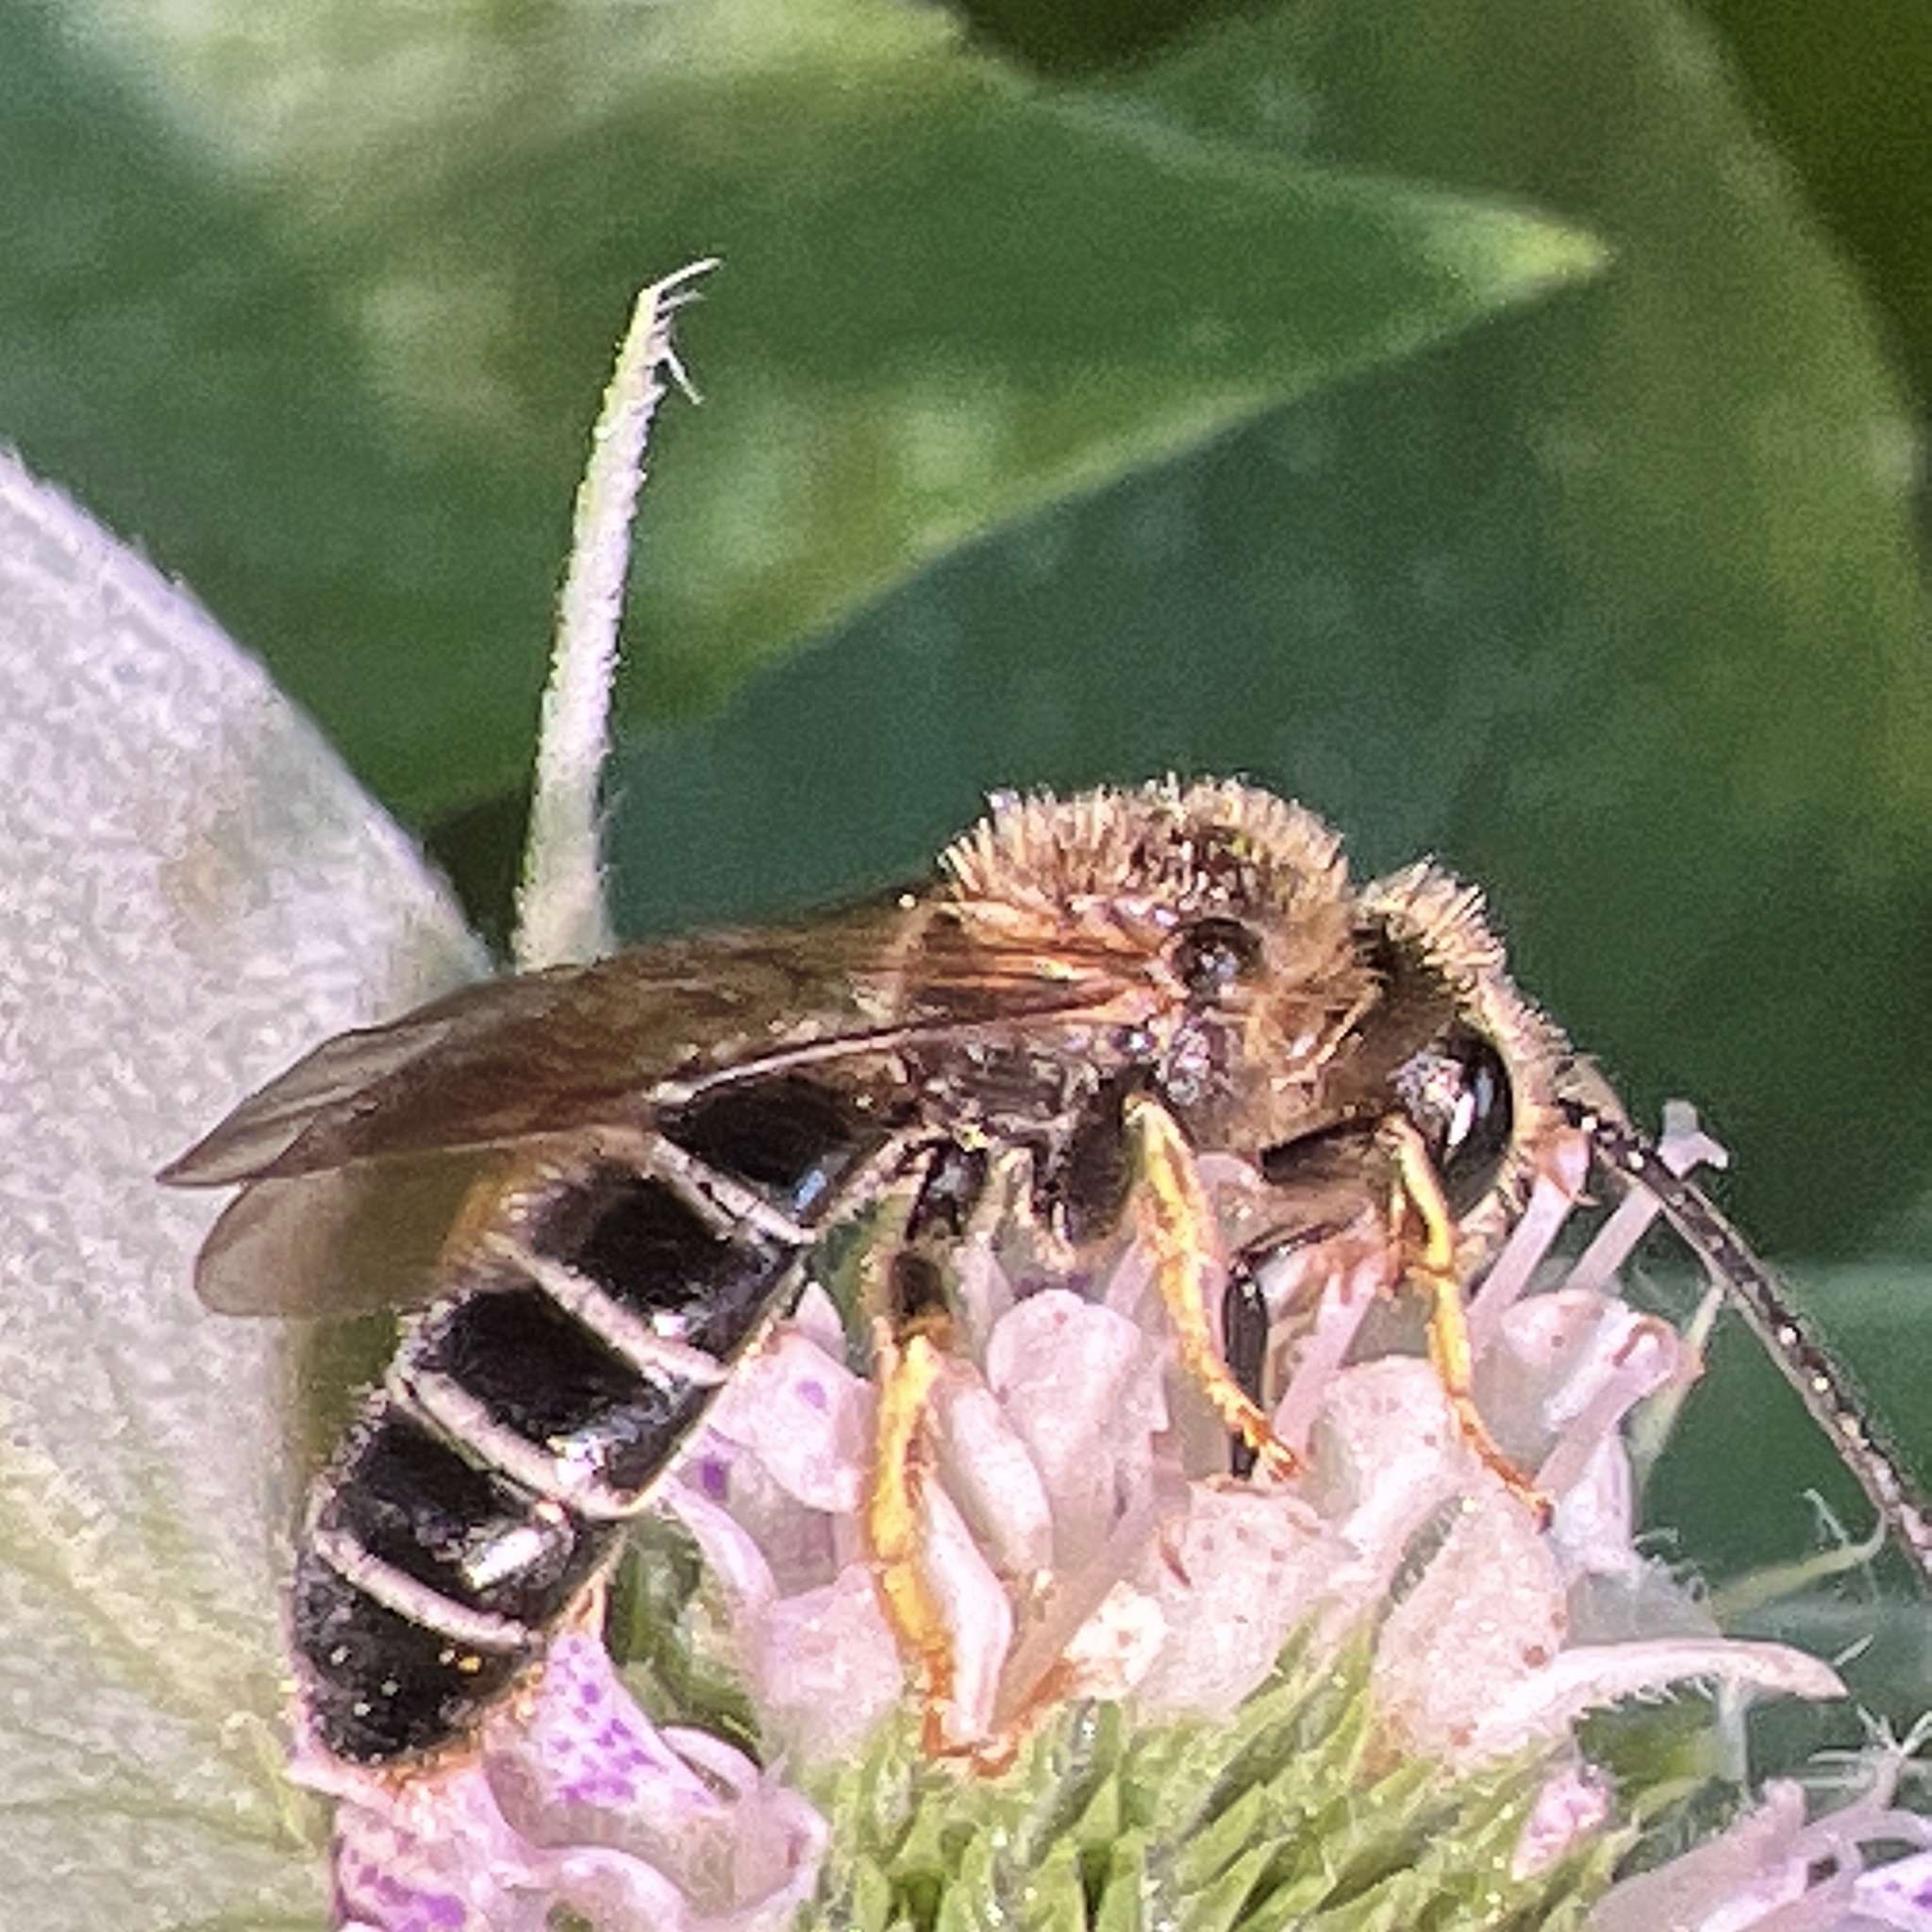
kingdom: Animalia
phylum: Arthropoda
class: Insecta
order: Hymenoptera
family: Halictidae
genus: Halictus
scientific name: Halictus rubicundus
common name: Orange-legged furrow bee
